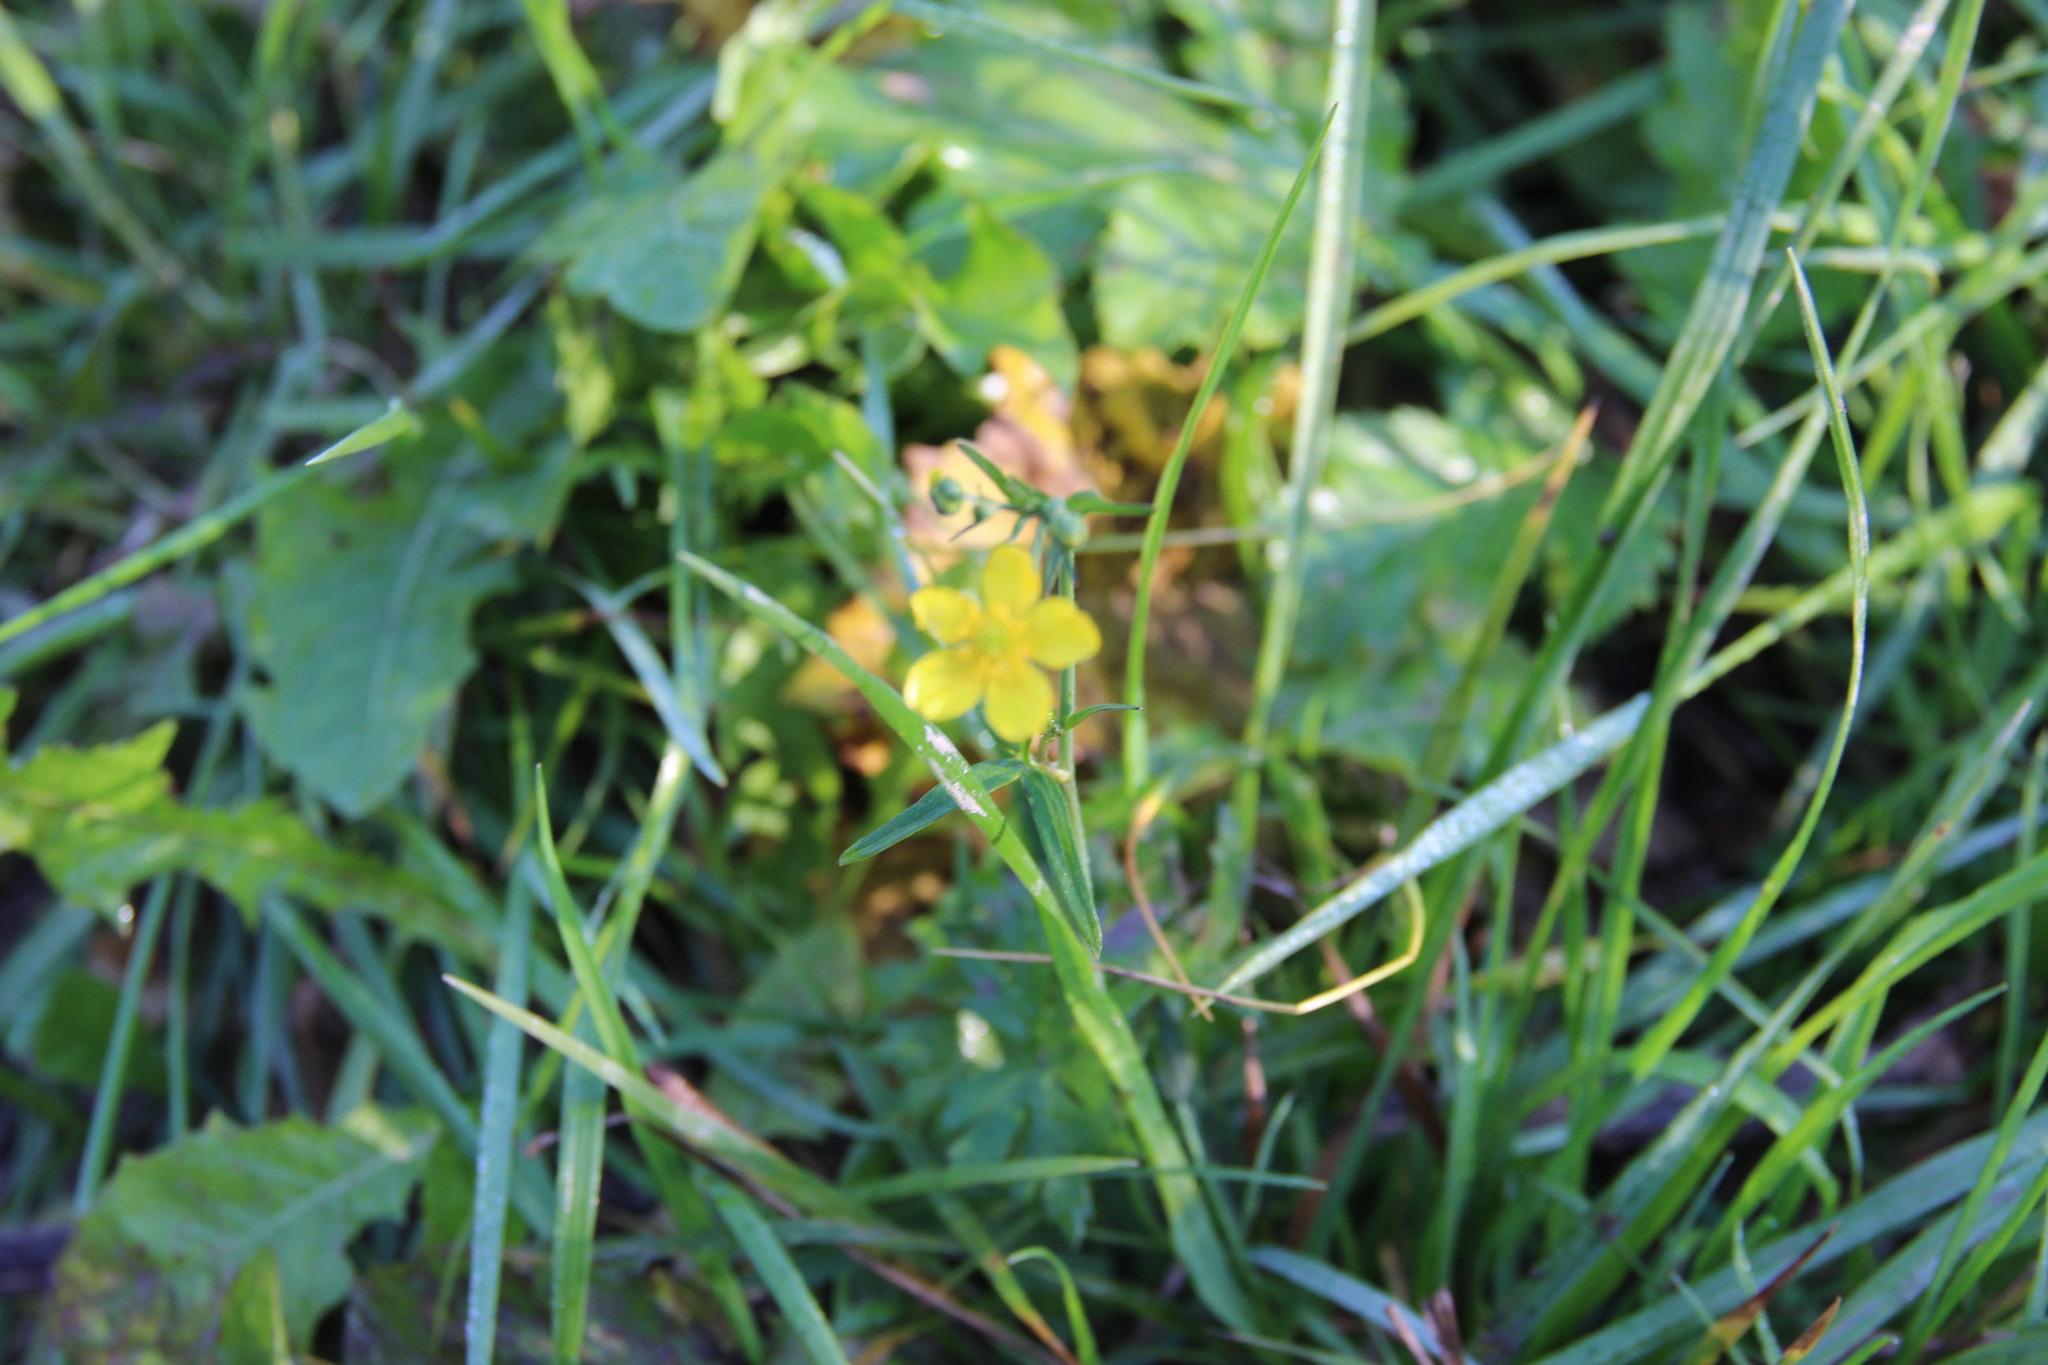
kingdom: Plantae
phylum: Tracheophyta
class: Magnoliopsida
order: Ranunculales
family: Ranunculaceae
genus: Ranunculus
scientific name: Ranunculus acris
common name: Meadow buttercup
